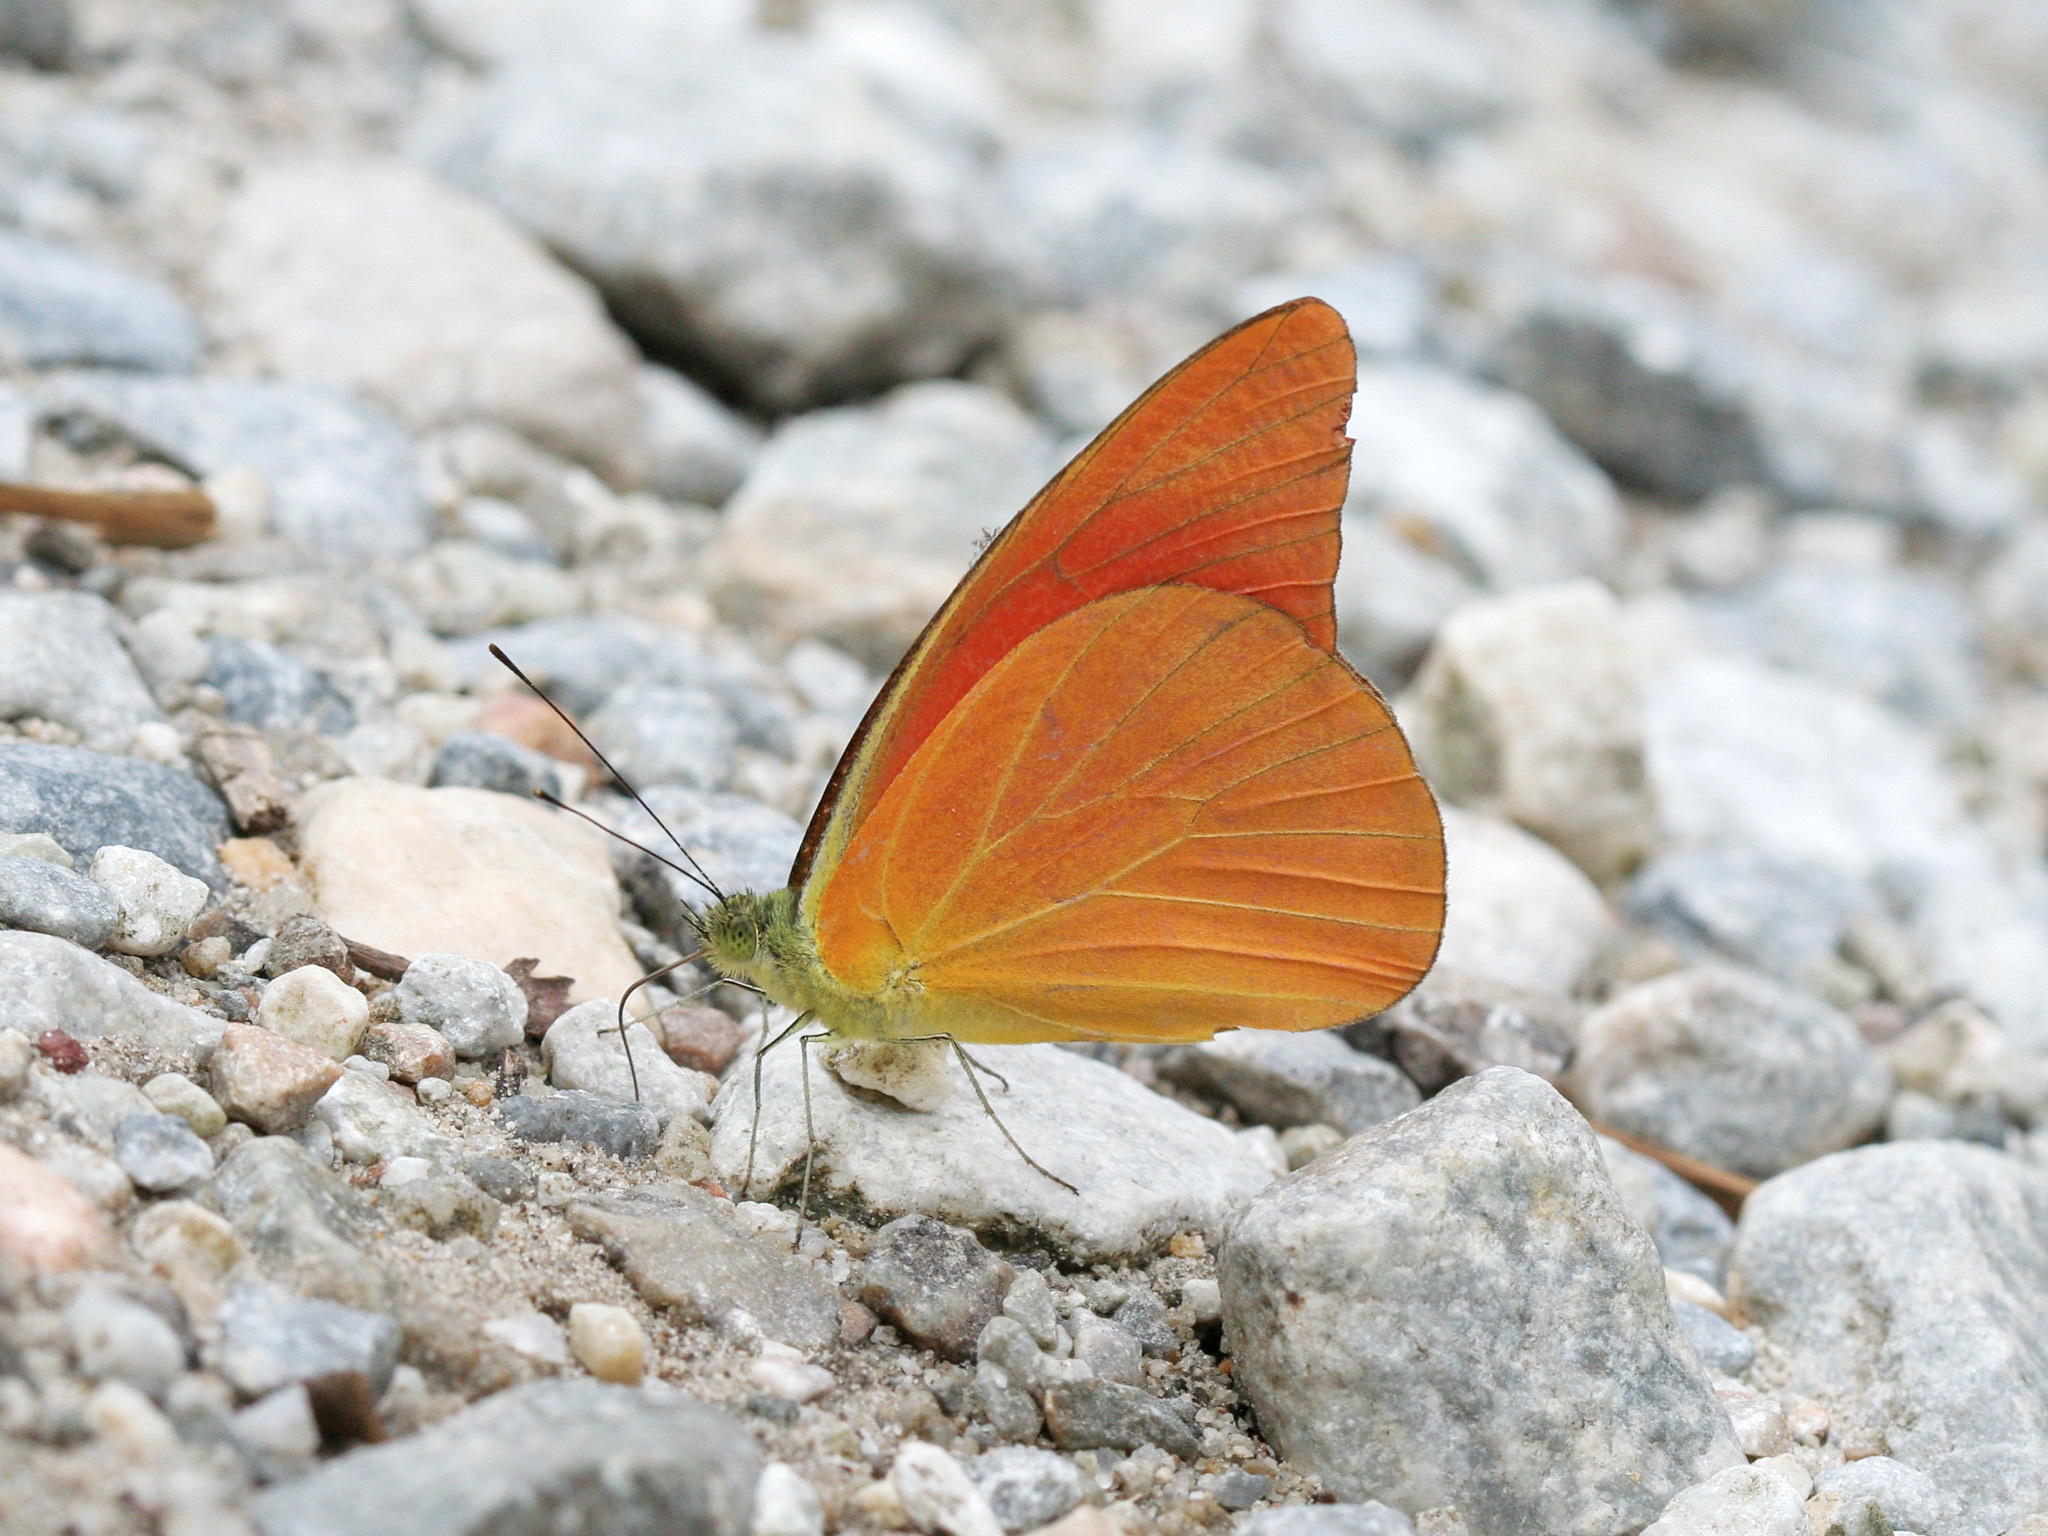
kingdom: Animalia
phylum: Arthropoda
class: Insecta
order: Lepidoptera
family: Pieridae
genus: Appias
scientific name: Appias nero
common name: Orange albatross
